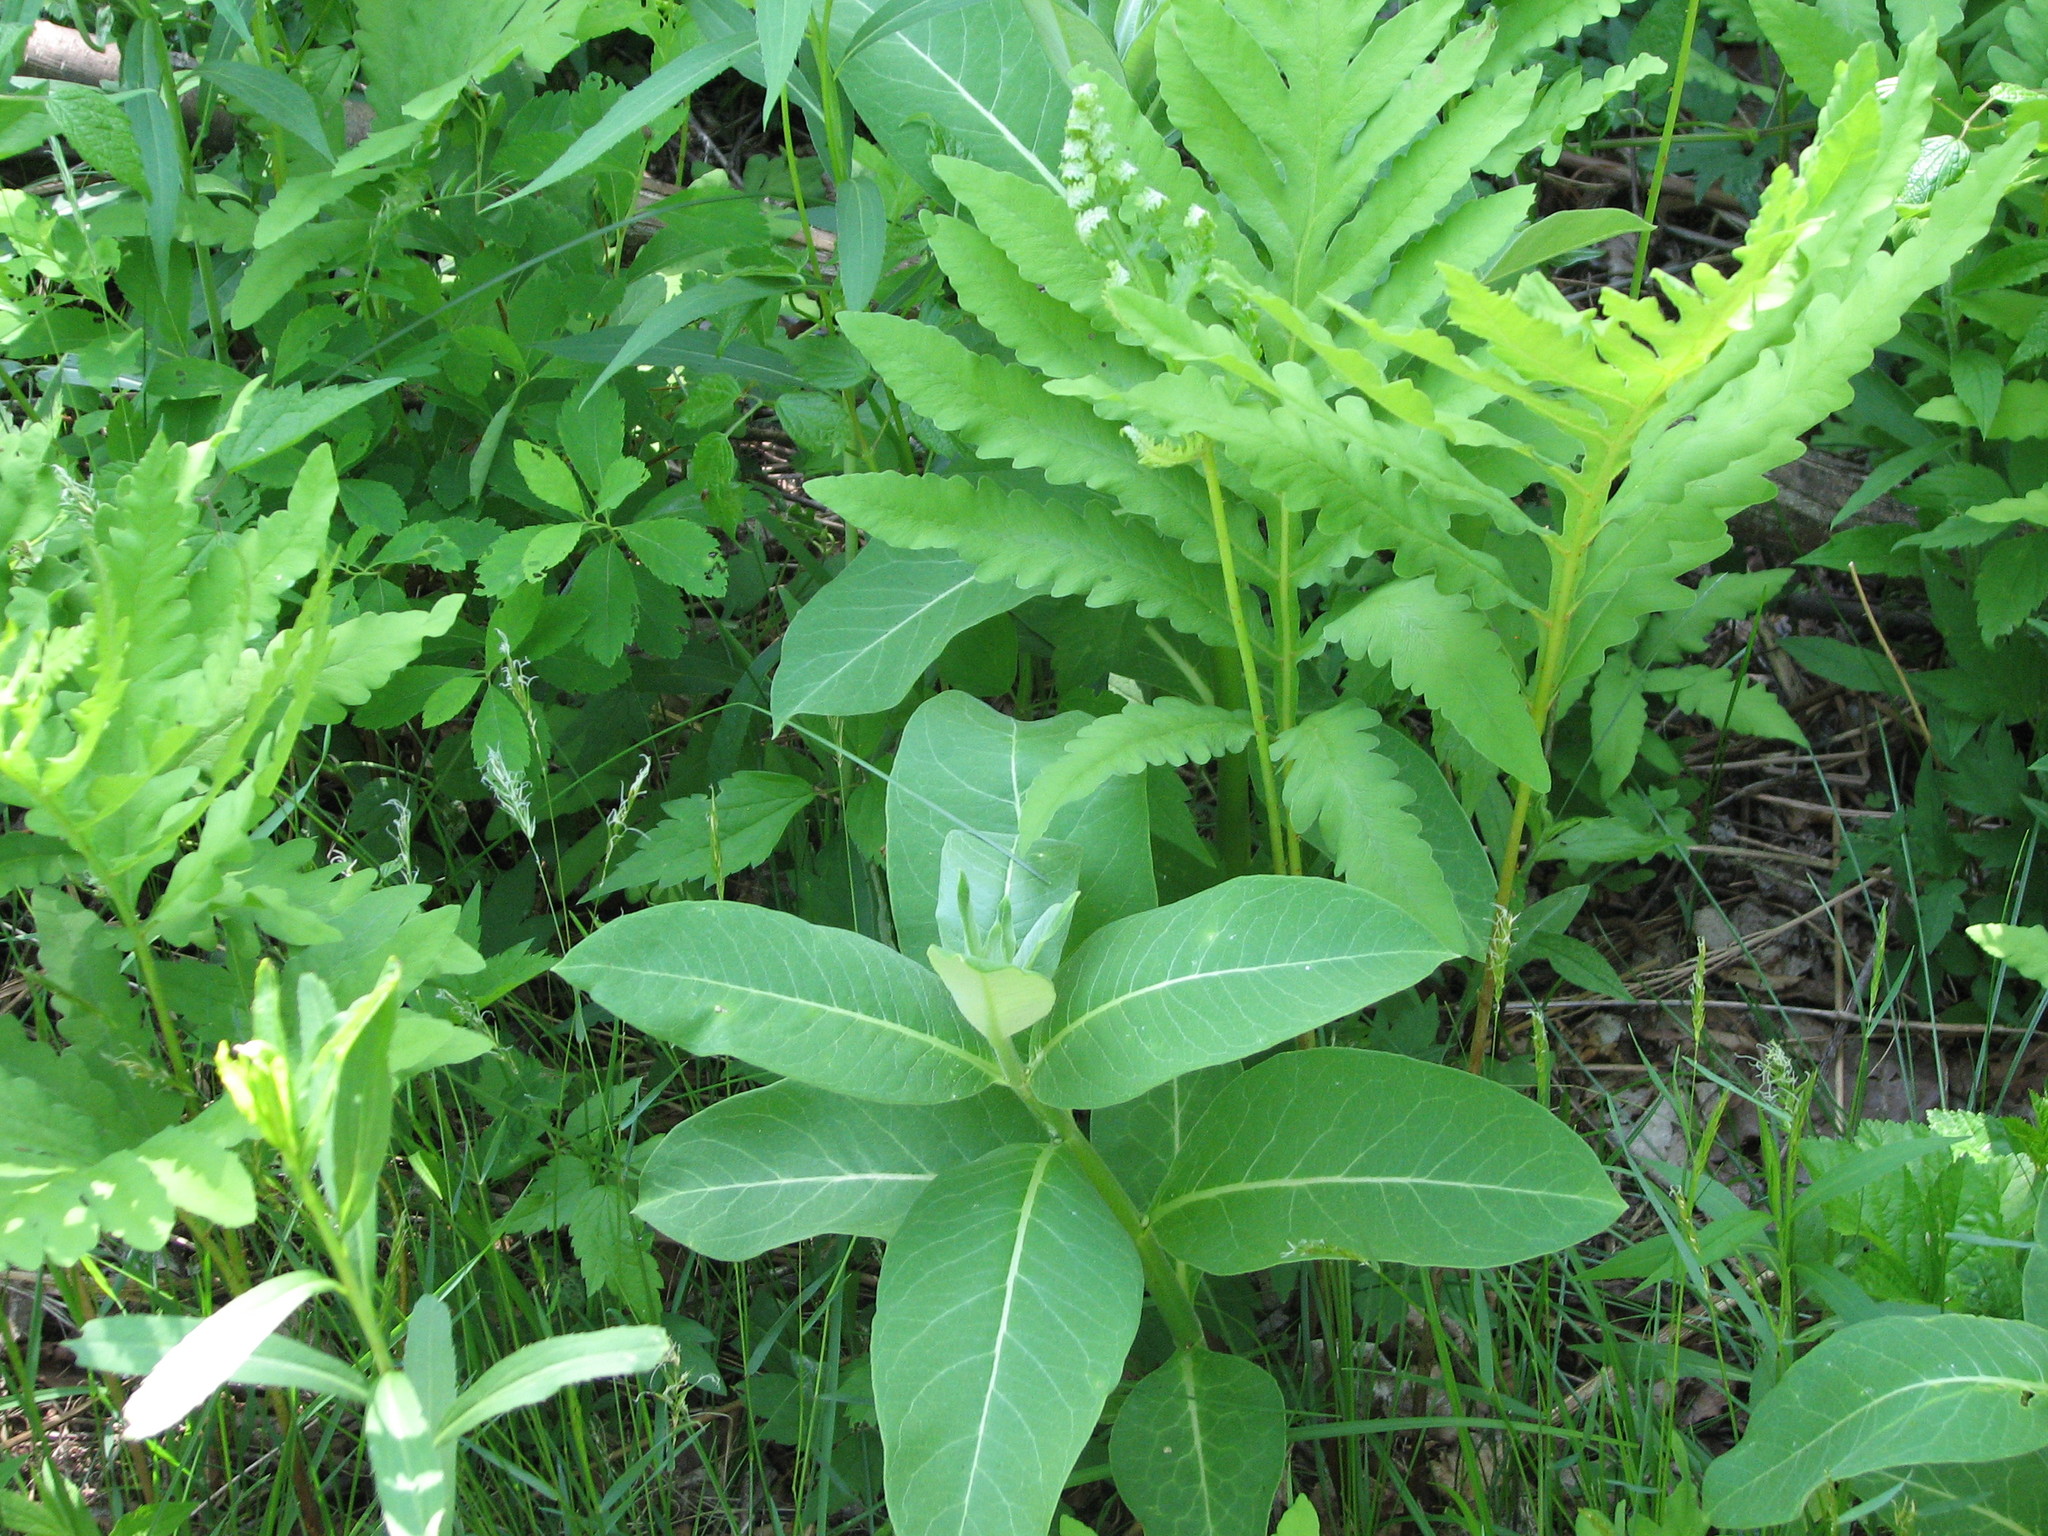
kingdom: Plantae
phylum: Tracheophyta
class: Magnoliopsida
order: Gentianales
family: Apocynaceae
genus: Asclepias
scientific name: Asclepias syriaca
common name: Common milkweed
